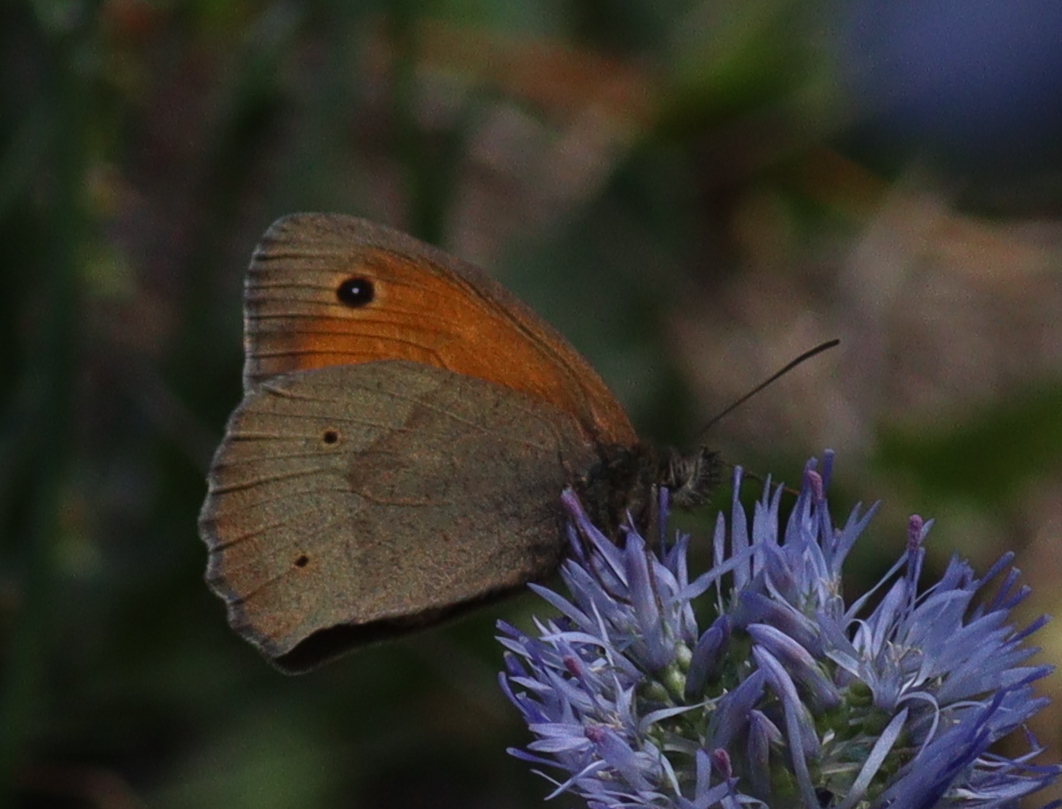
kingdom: Animalia
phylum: Arthropoda
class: Insecta
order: Lepidoptera
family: Nymphalidae
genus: Maniola
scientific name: Maniola jurtina
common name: Meadow brown
